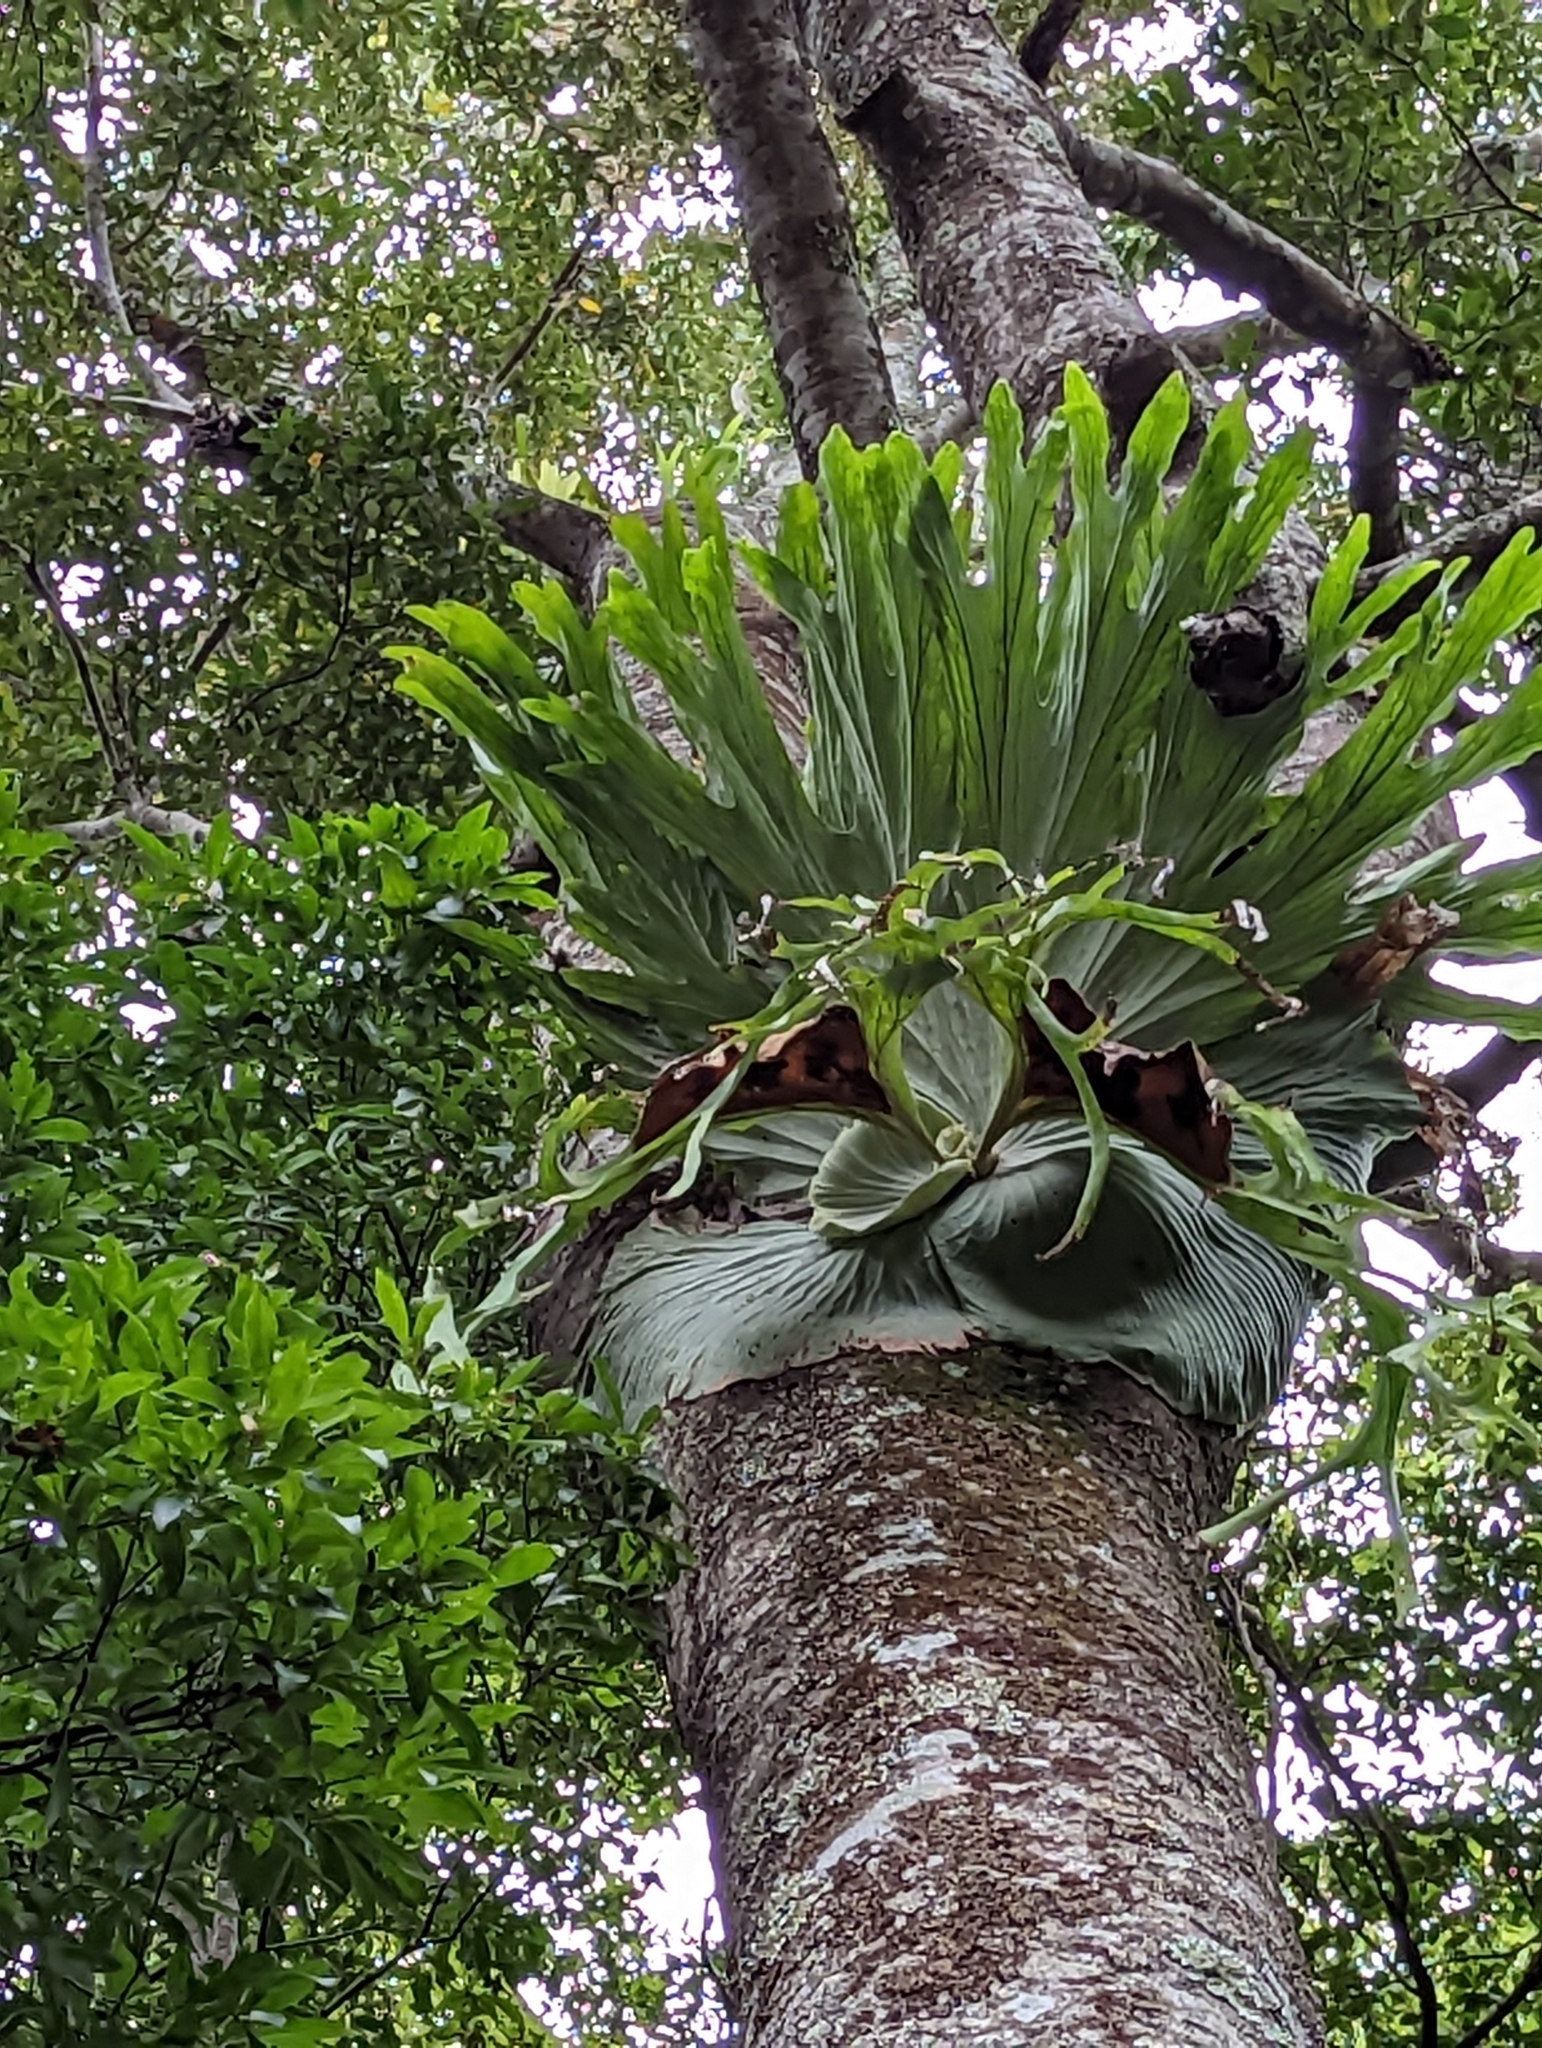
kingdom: Plantae
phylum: Tracheophyta
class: Polypodiopsida
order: Polypodiales
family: Polypodiaceae
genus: Platycerium
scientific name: Platycerium superbum
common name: Staghorn fern
